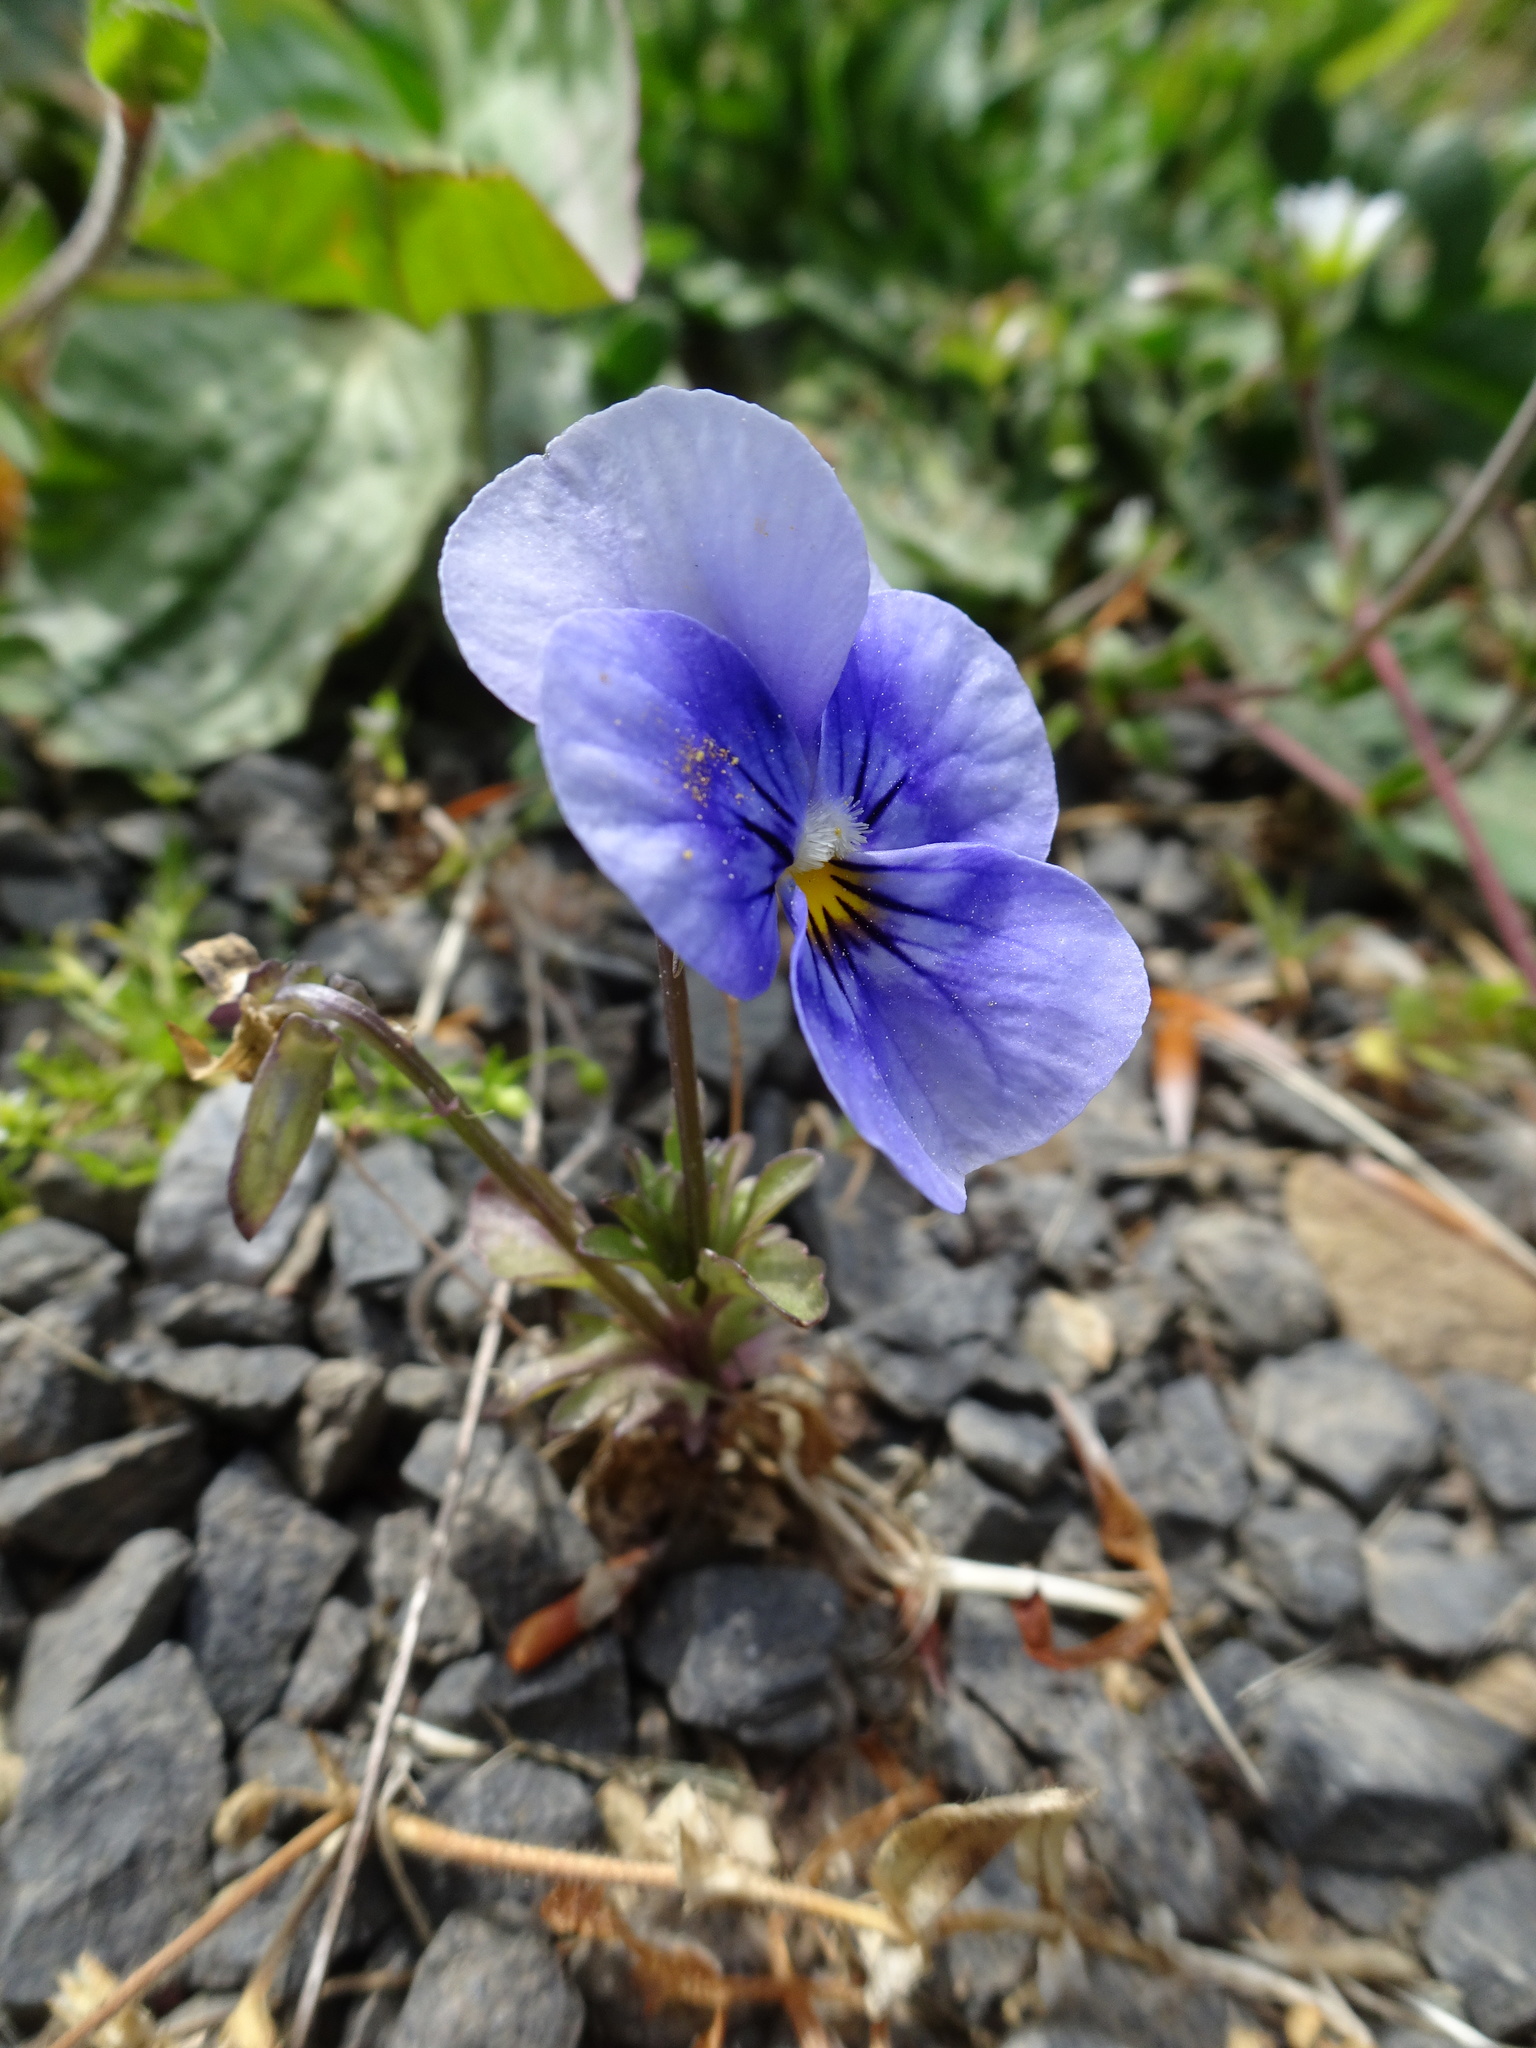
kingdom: Plantae
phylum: Tracheophyta
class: Magnoliopsida
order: Malpighiales
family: Violaceae
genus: Viola
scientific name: Viola wittrockiana
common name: Garden pansy
